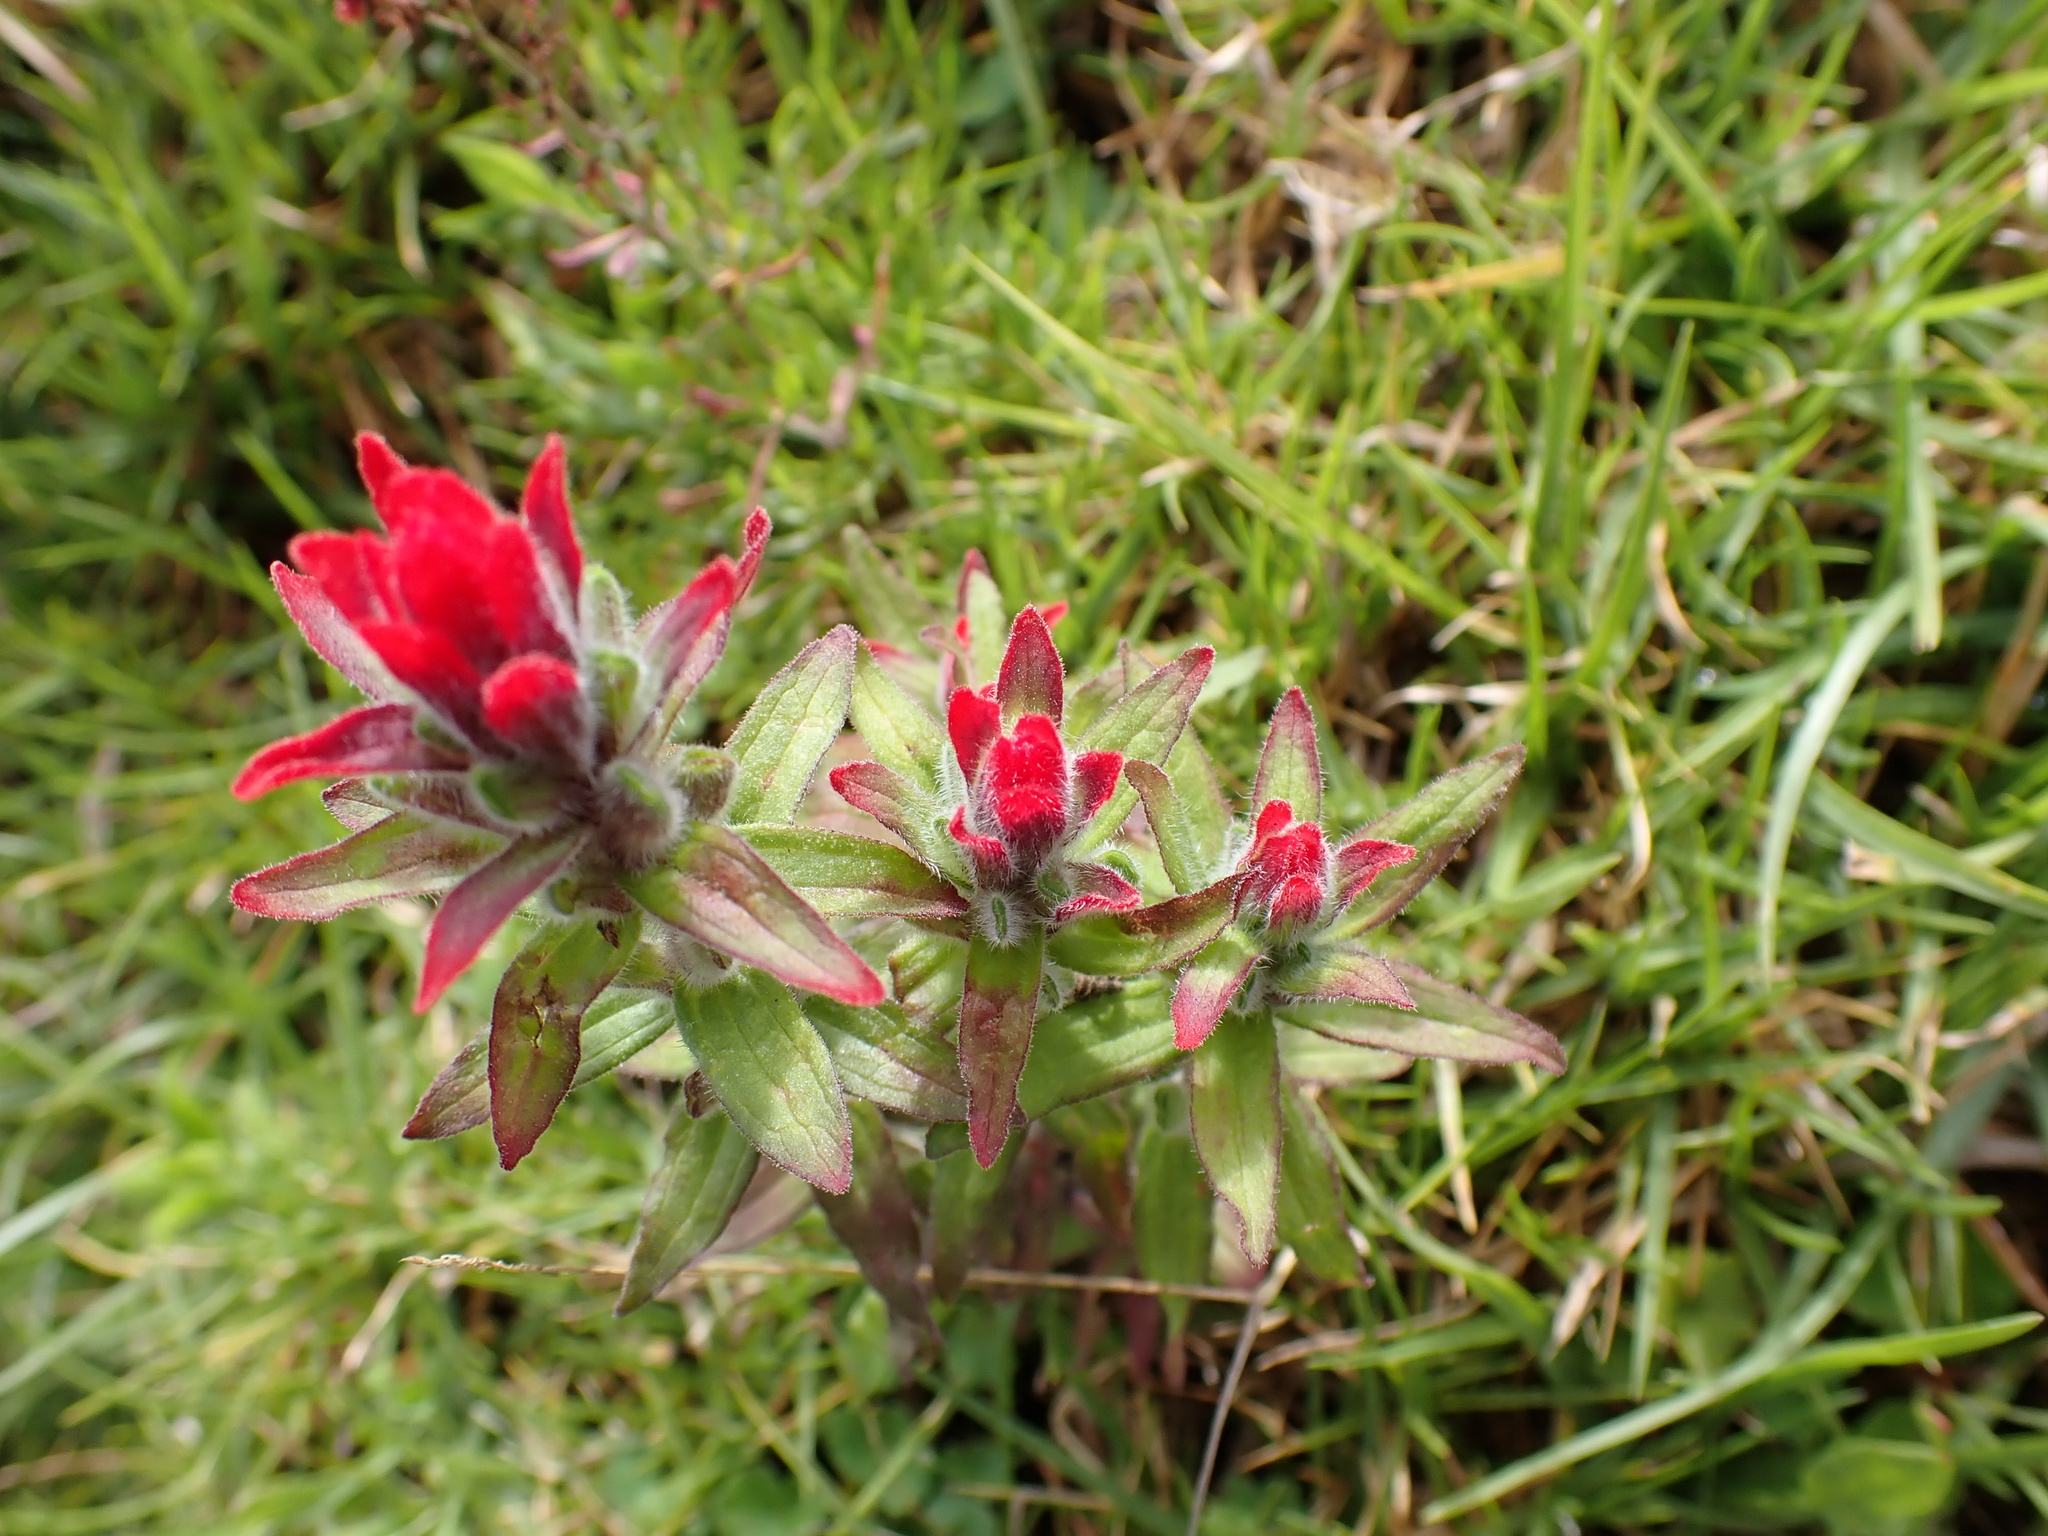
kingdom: Plantae
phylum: Tracheophyta
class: Magnoliopsida
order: Lamiales
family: Orobanchaceae
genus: Castilleja
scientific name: Castilleja arvensis
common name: Indian paintbrush
